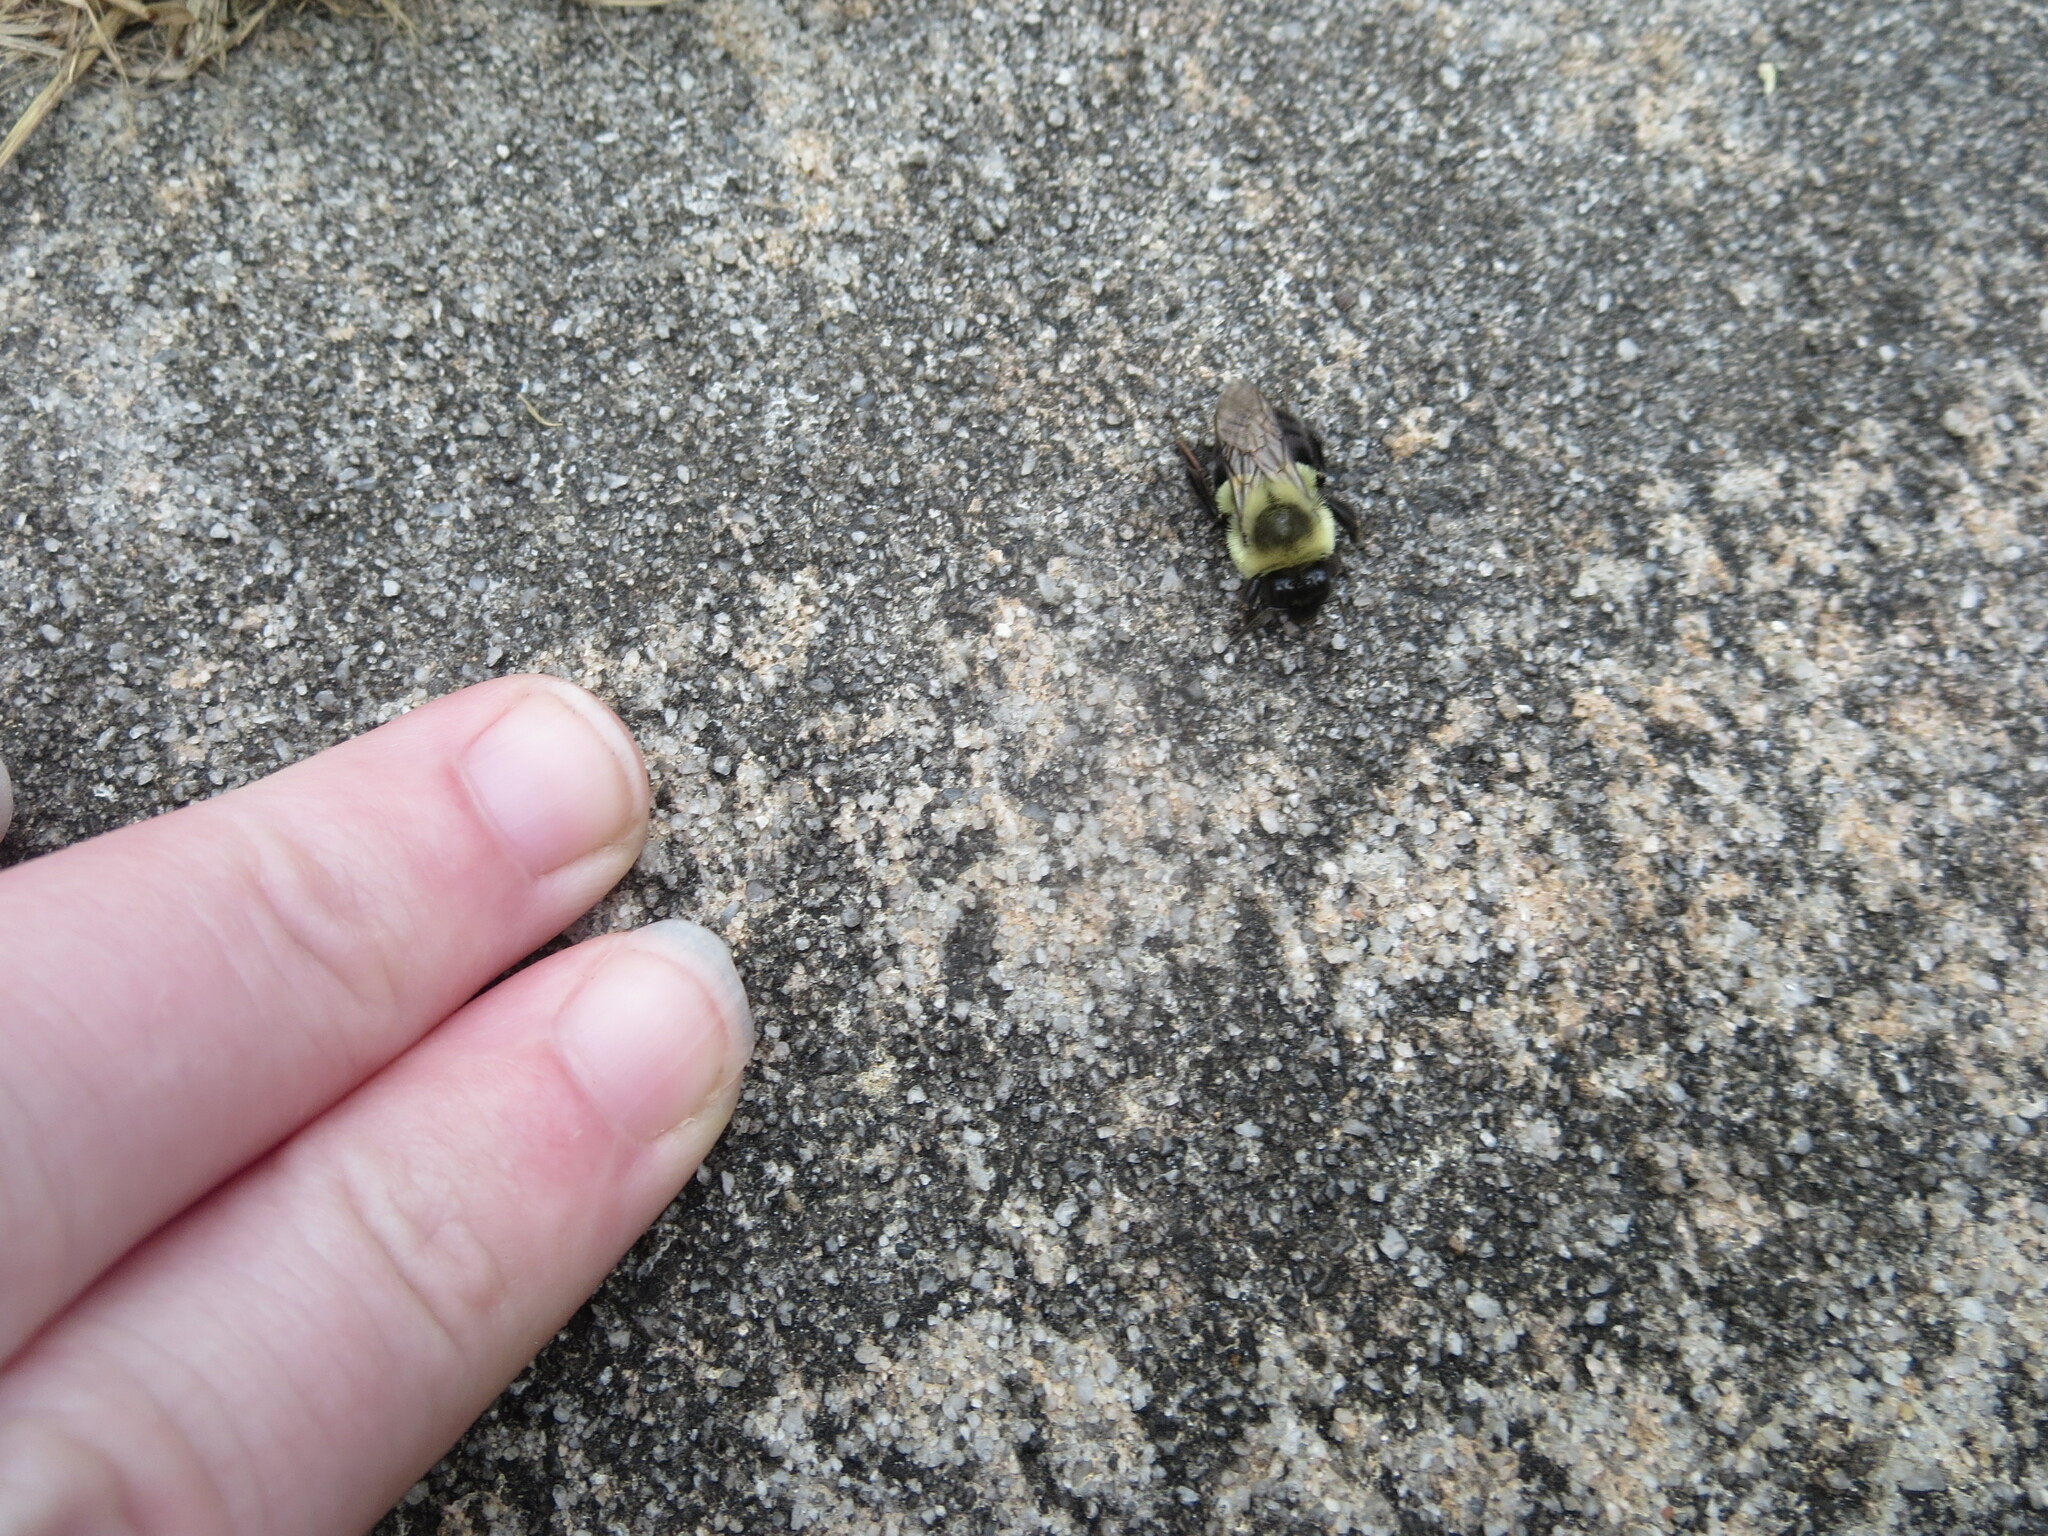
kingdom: Animalia
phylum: Arthropoda
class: Insecta
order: Hymenoptera
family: Apidae
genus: Bombus
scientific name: Bombus impatiens
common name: Common eastern bumble bee
